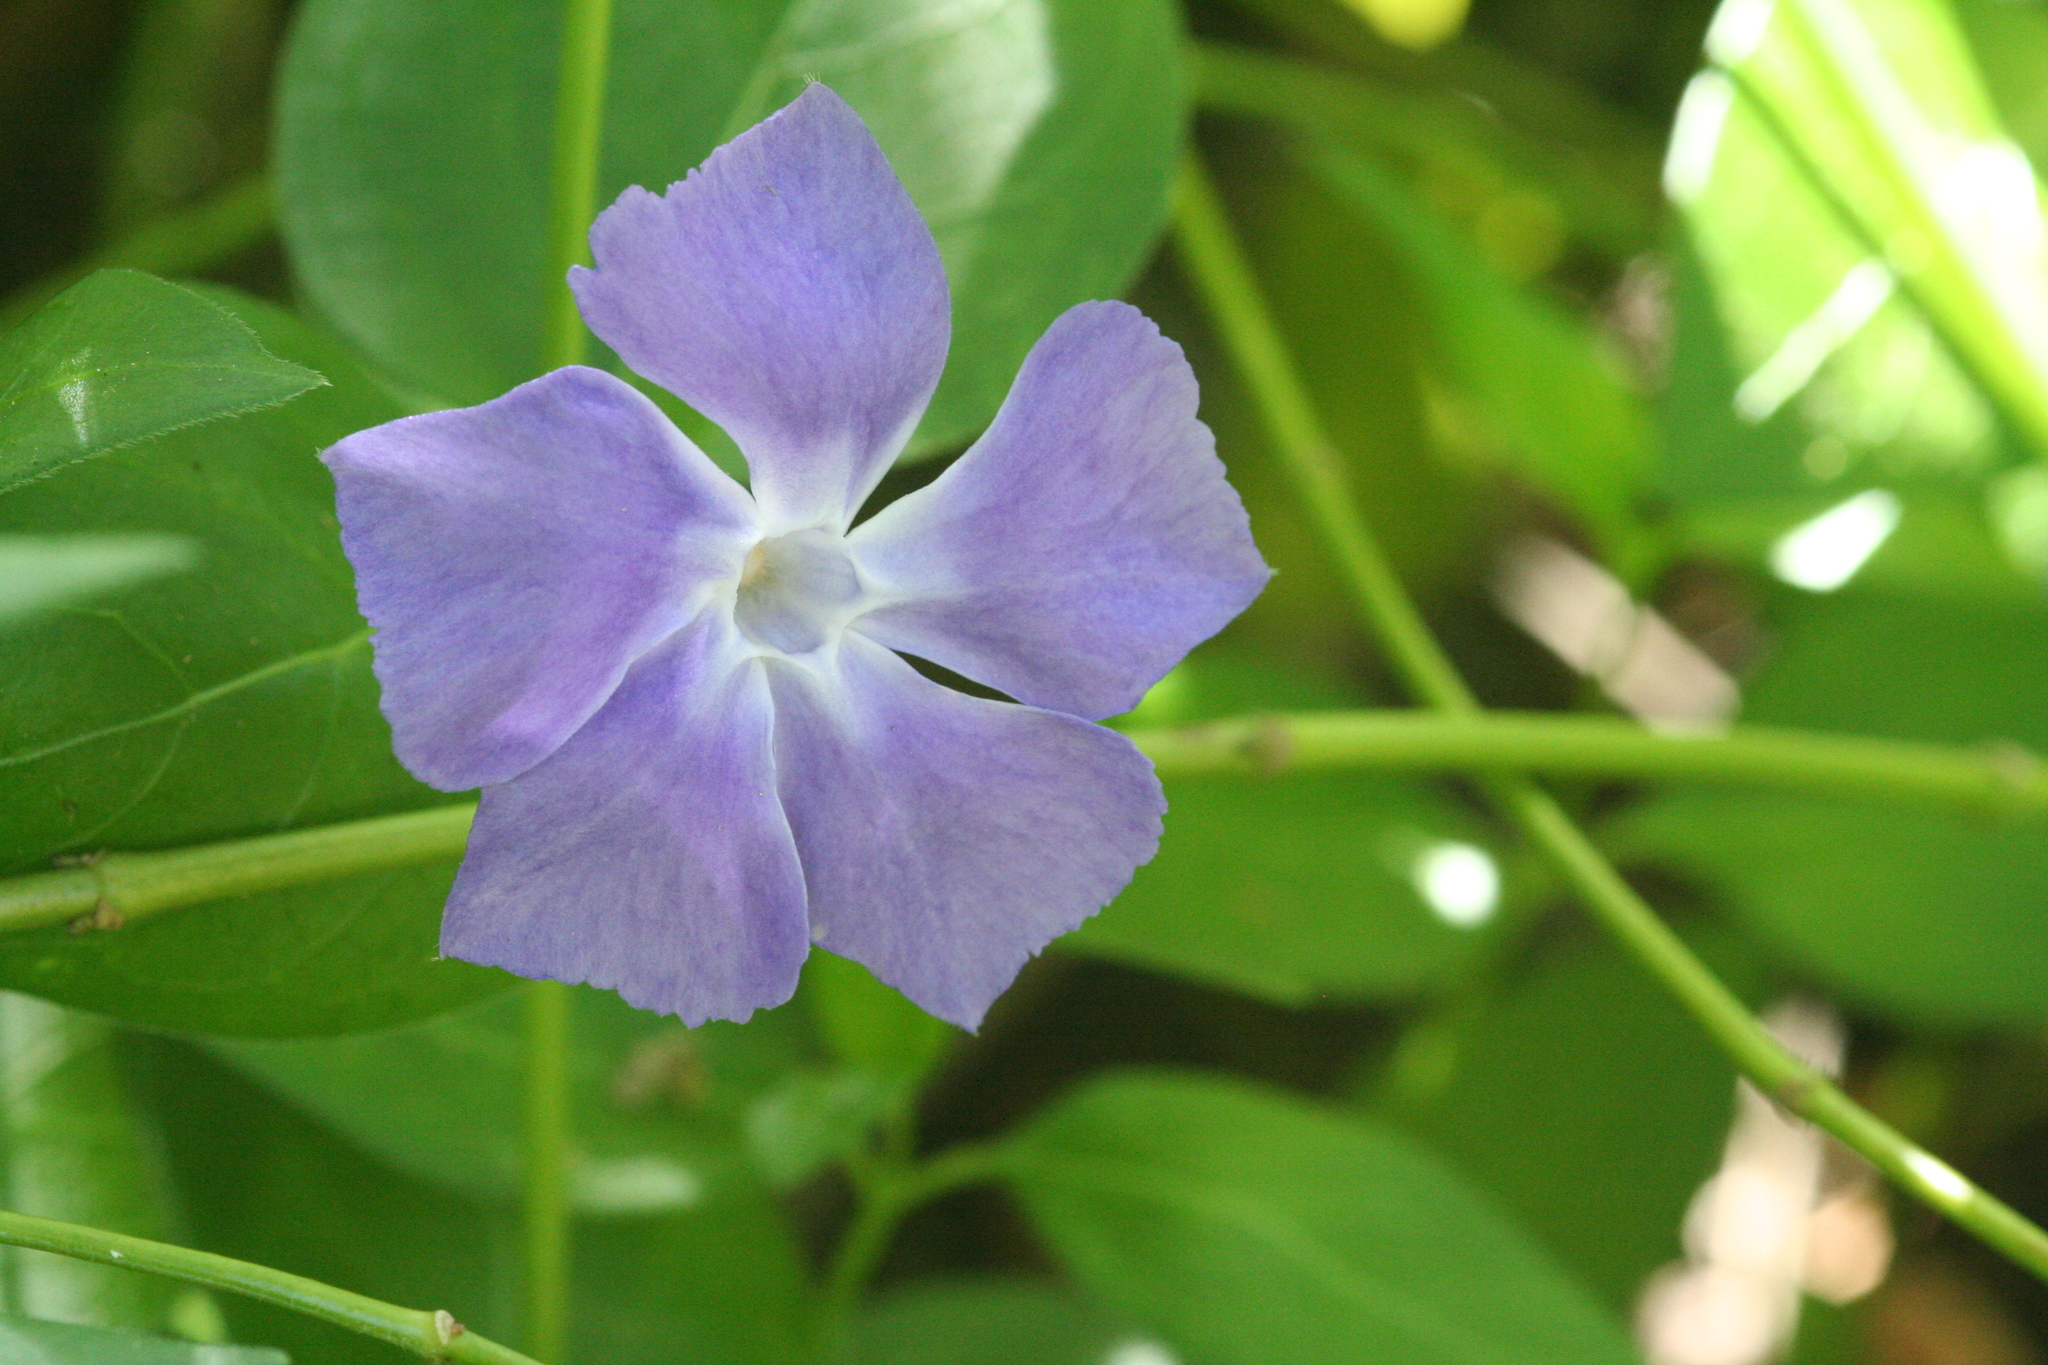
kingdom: Plantae
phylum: Tracheophyta
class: Magnoliopsida
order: Gentianales
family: Apocynaceae
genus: Vinca
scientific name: Vinca major
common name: Greater periwinkle
